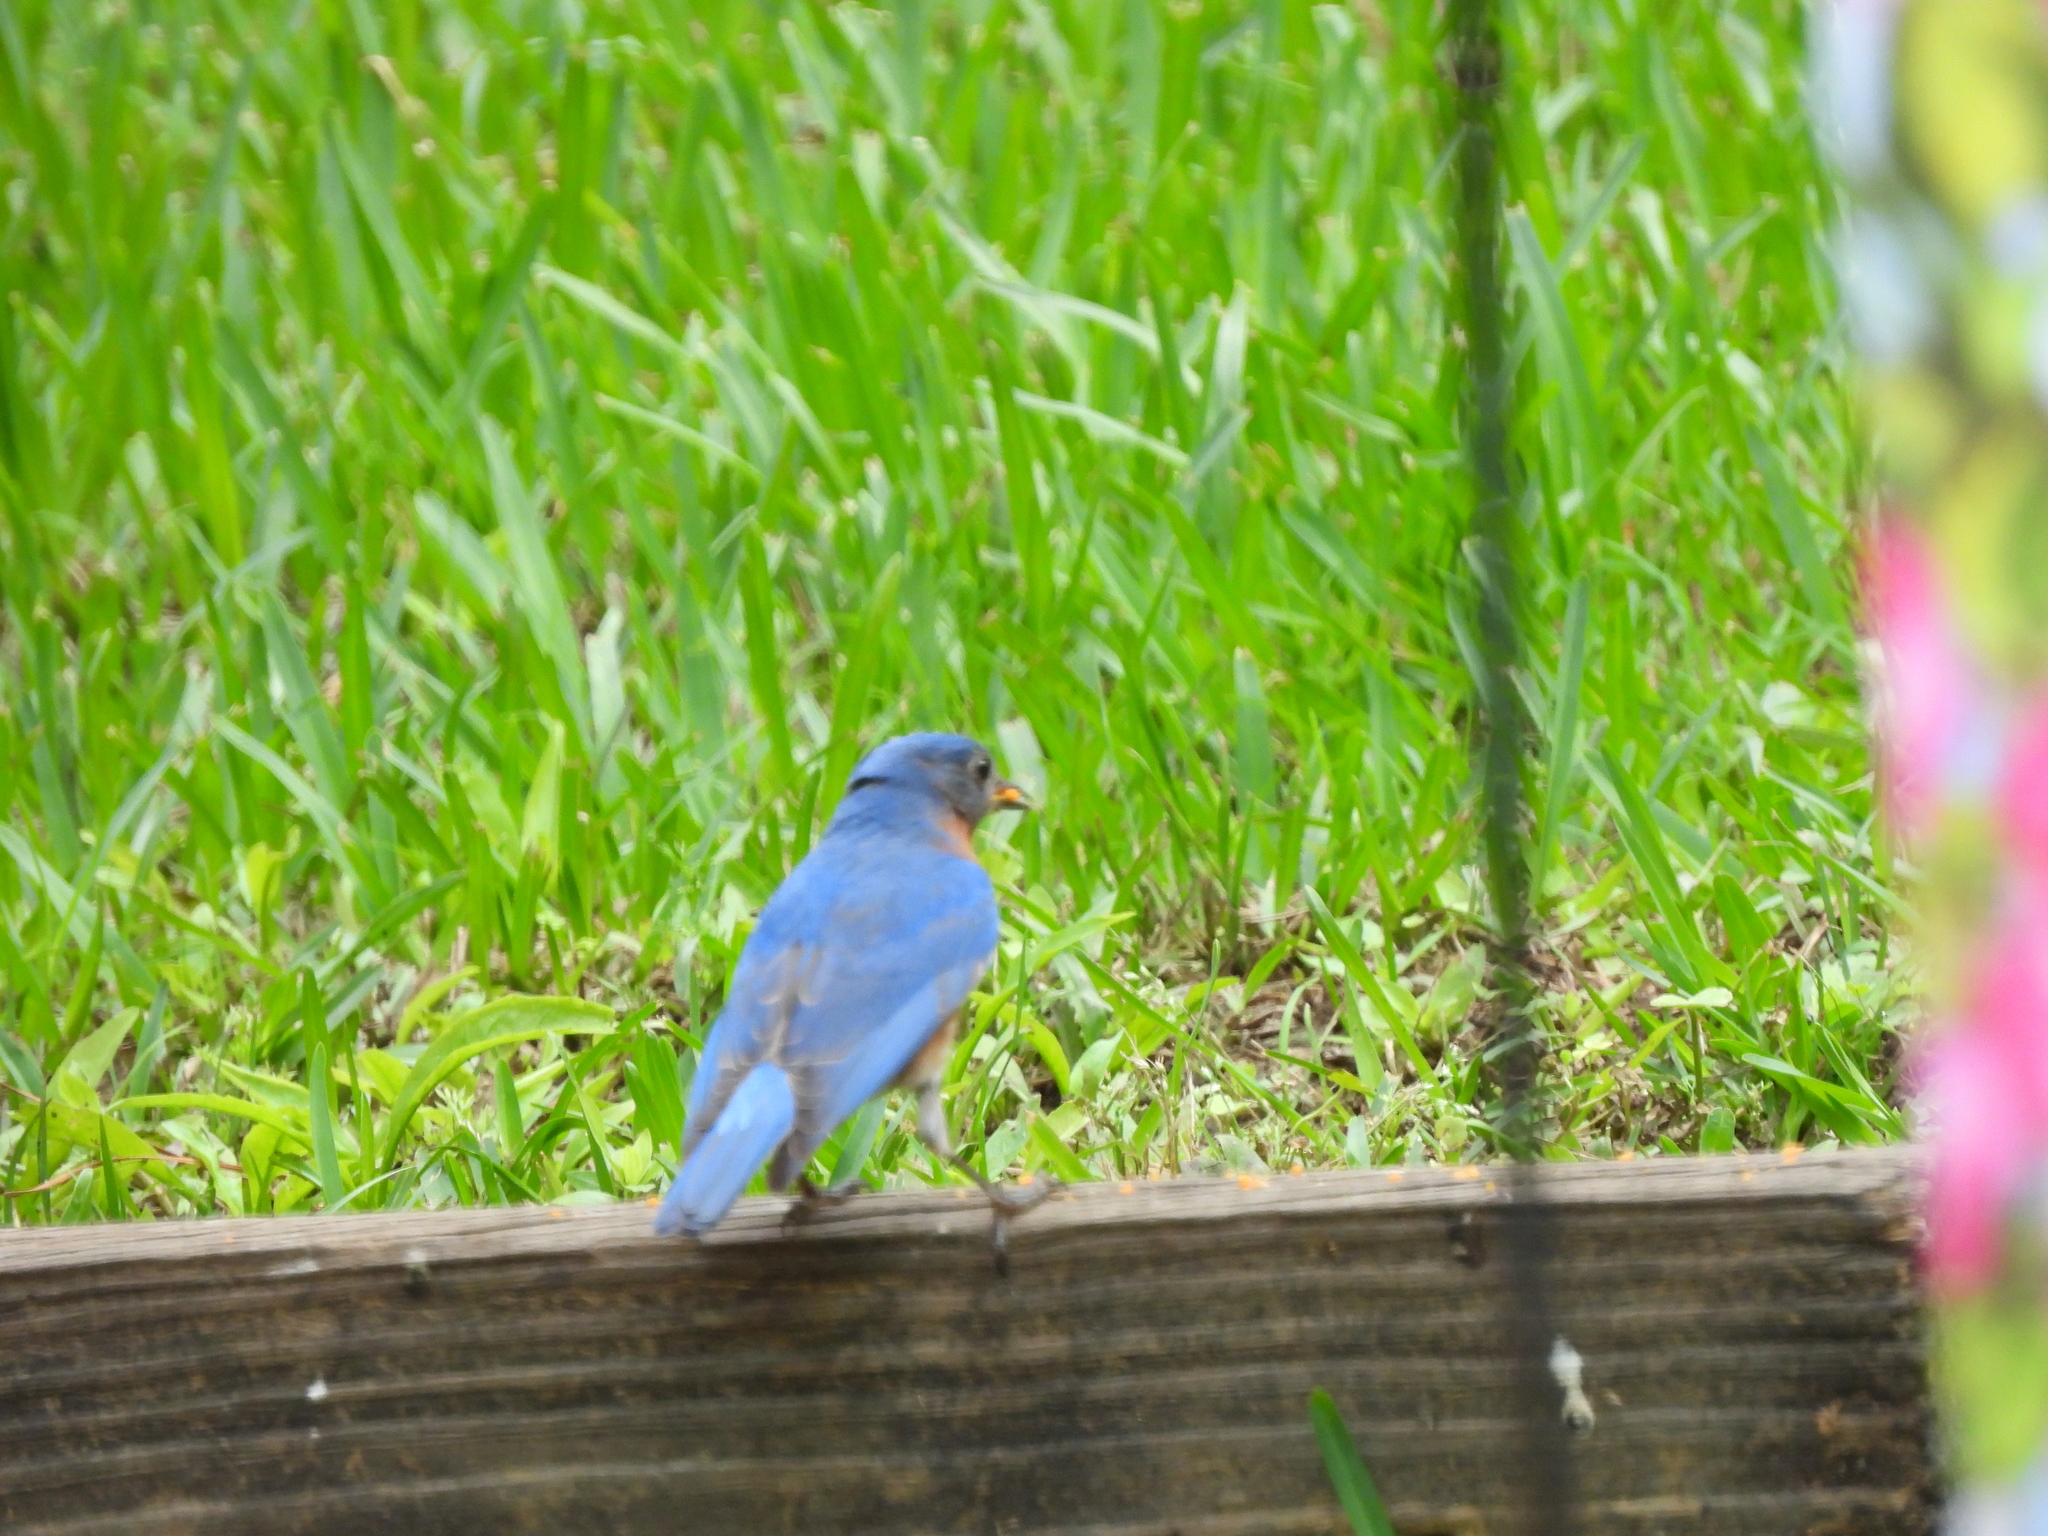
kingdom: Animalia
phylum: Chordata
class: Aves
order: Passeriformes
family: Turdidae
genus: Sialia
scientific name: Sialia sialis
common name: Eastern bluebird
